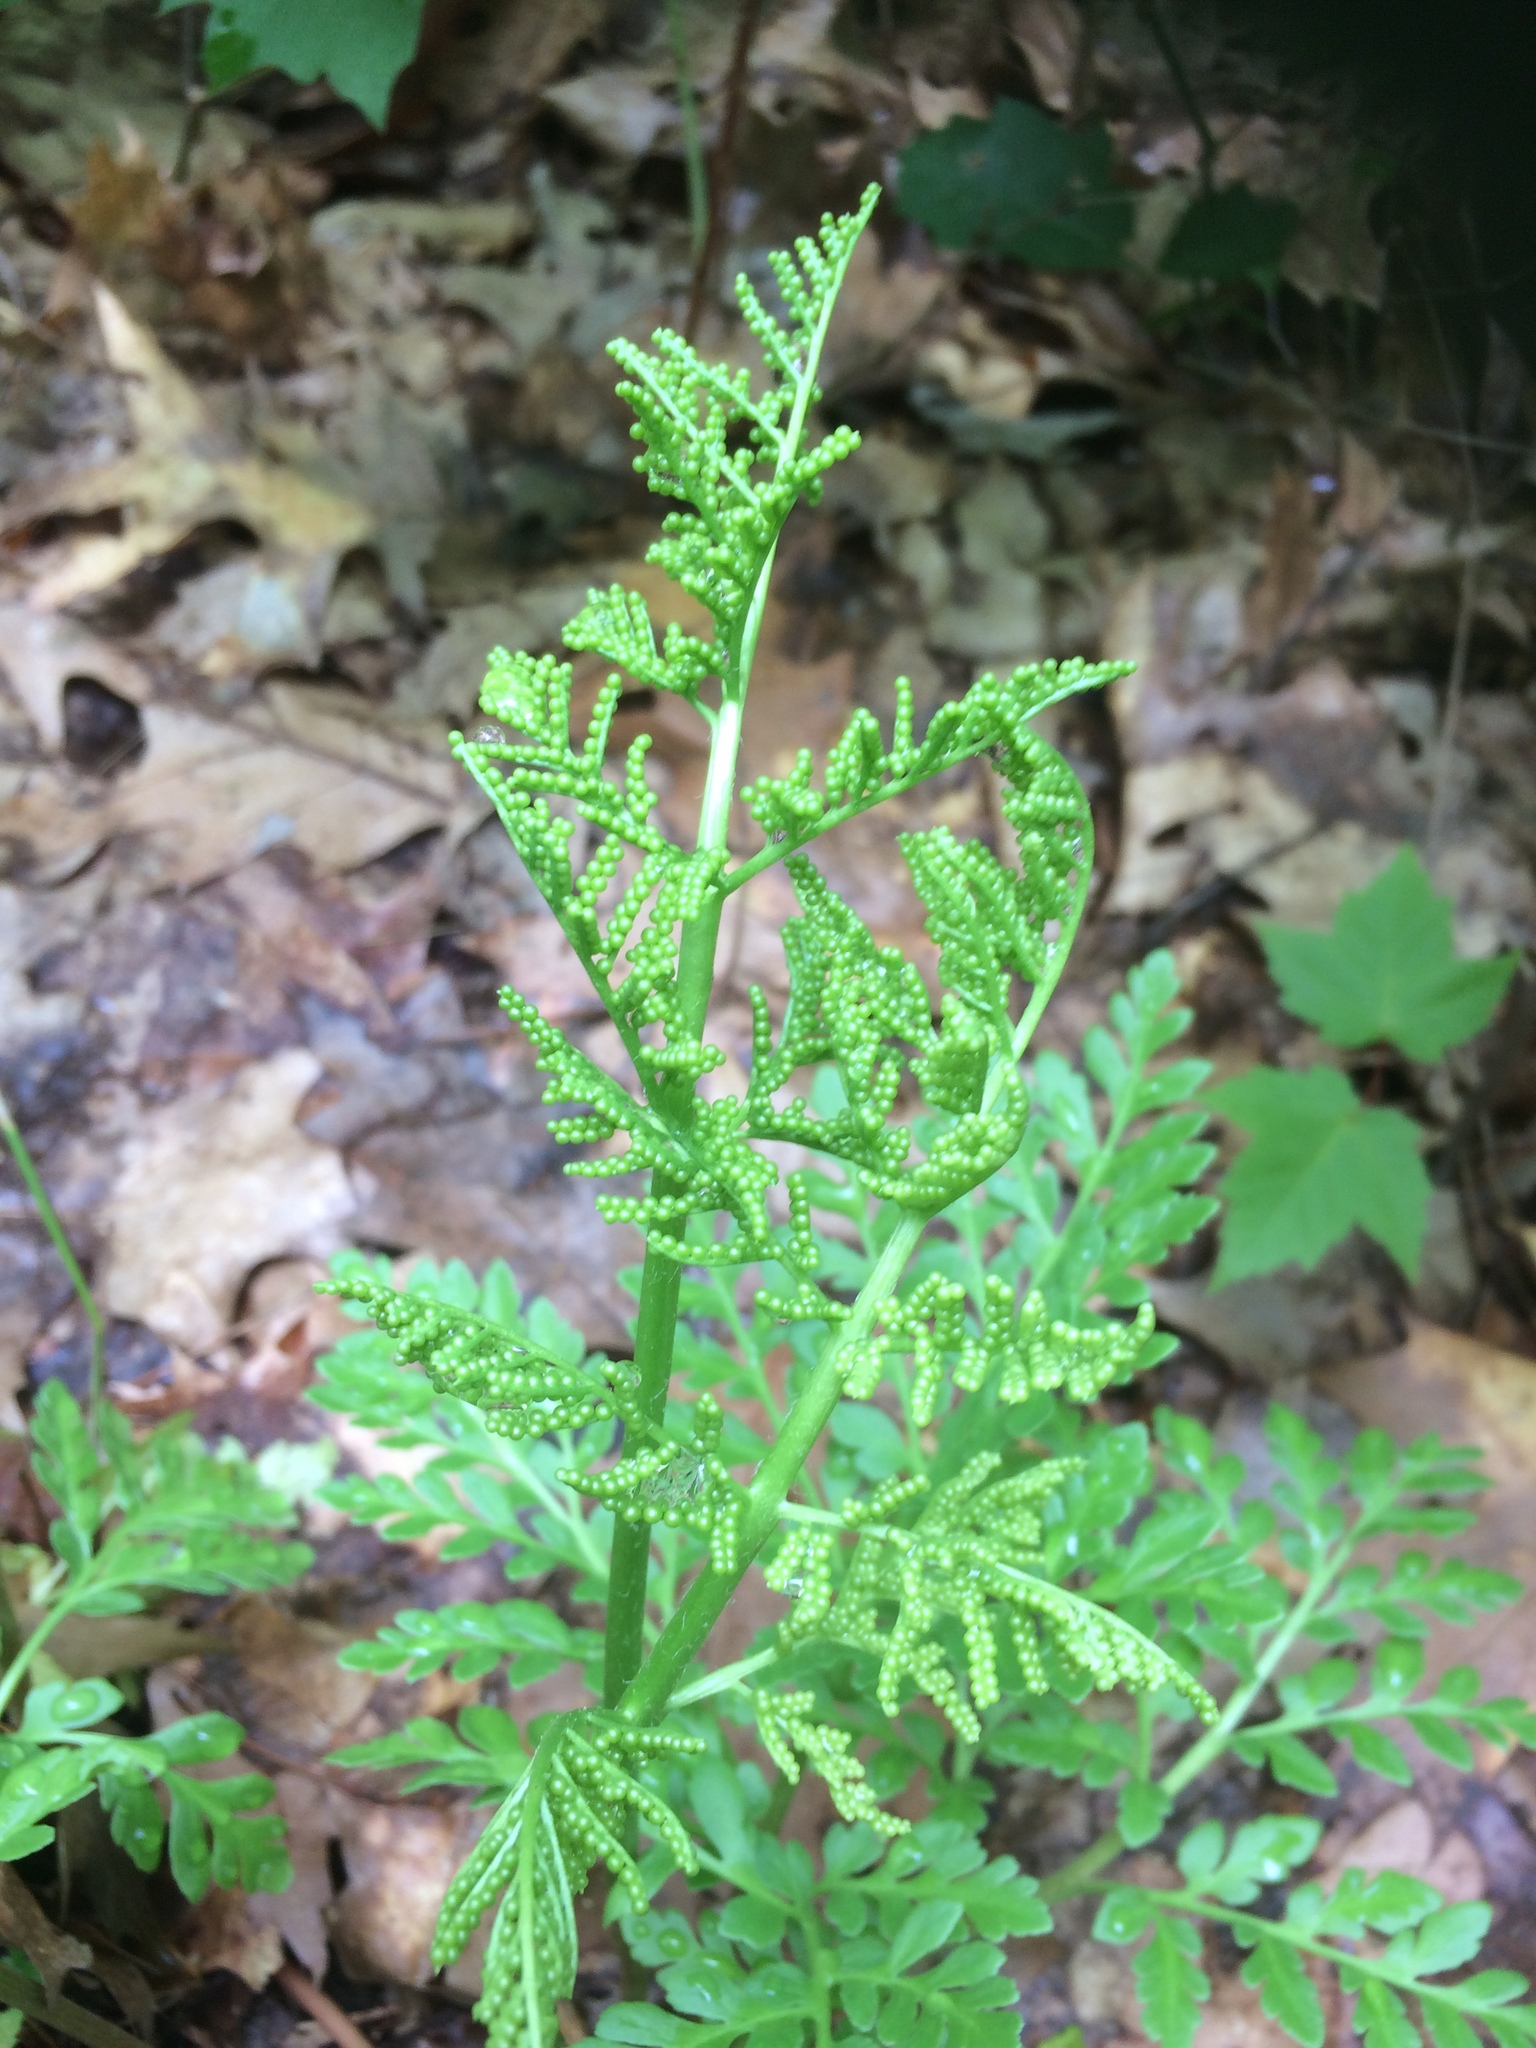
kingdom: Plantae
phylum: Tracheophyta
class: Polypodiopsida
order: Ophioglossales
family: Ophioglossaceae
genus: Sceptridium
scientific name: Sceptridium multifidum
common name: Leathery grape fern
